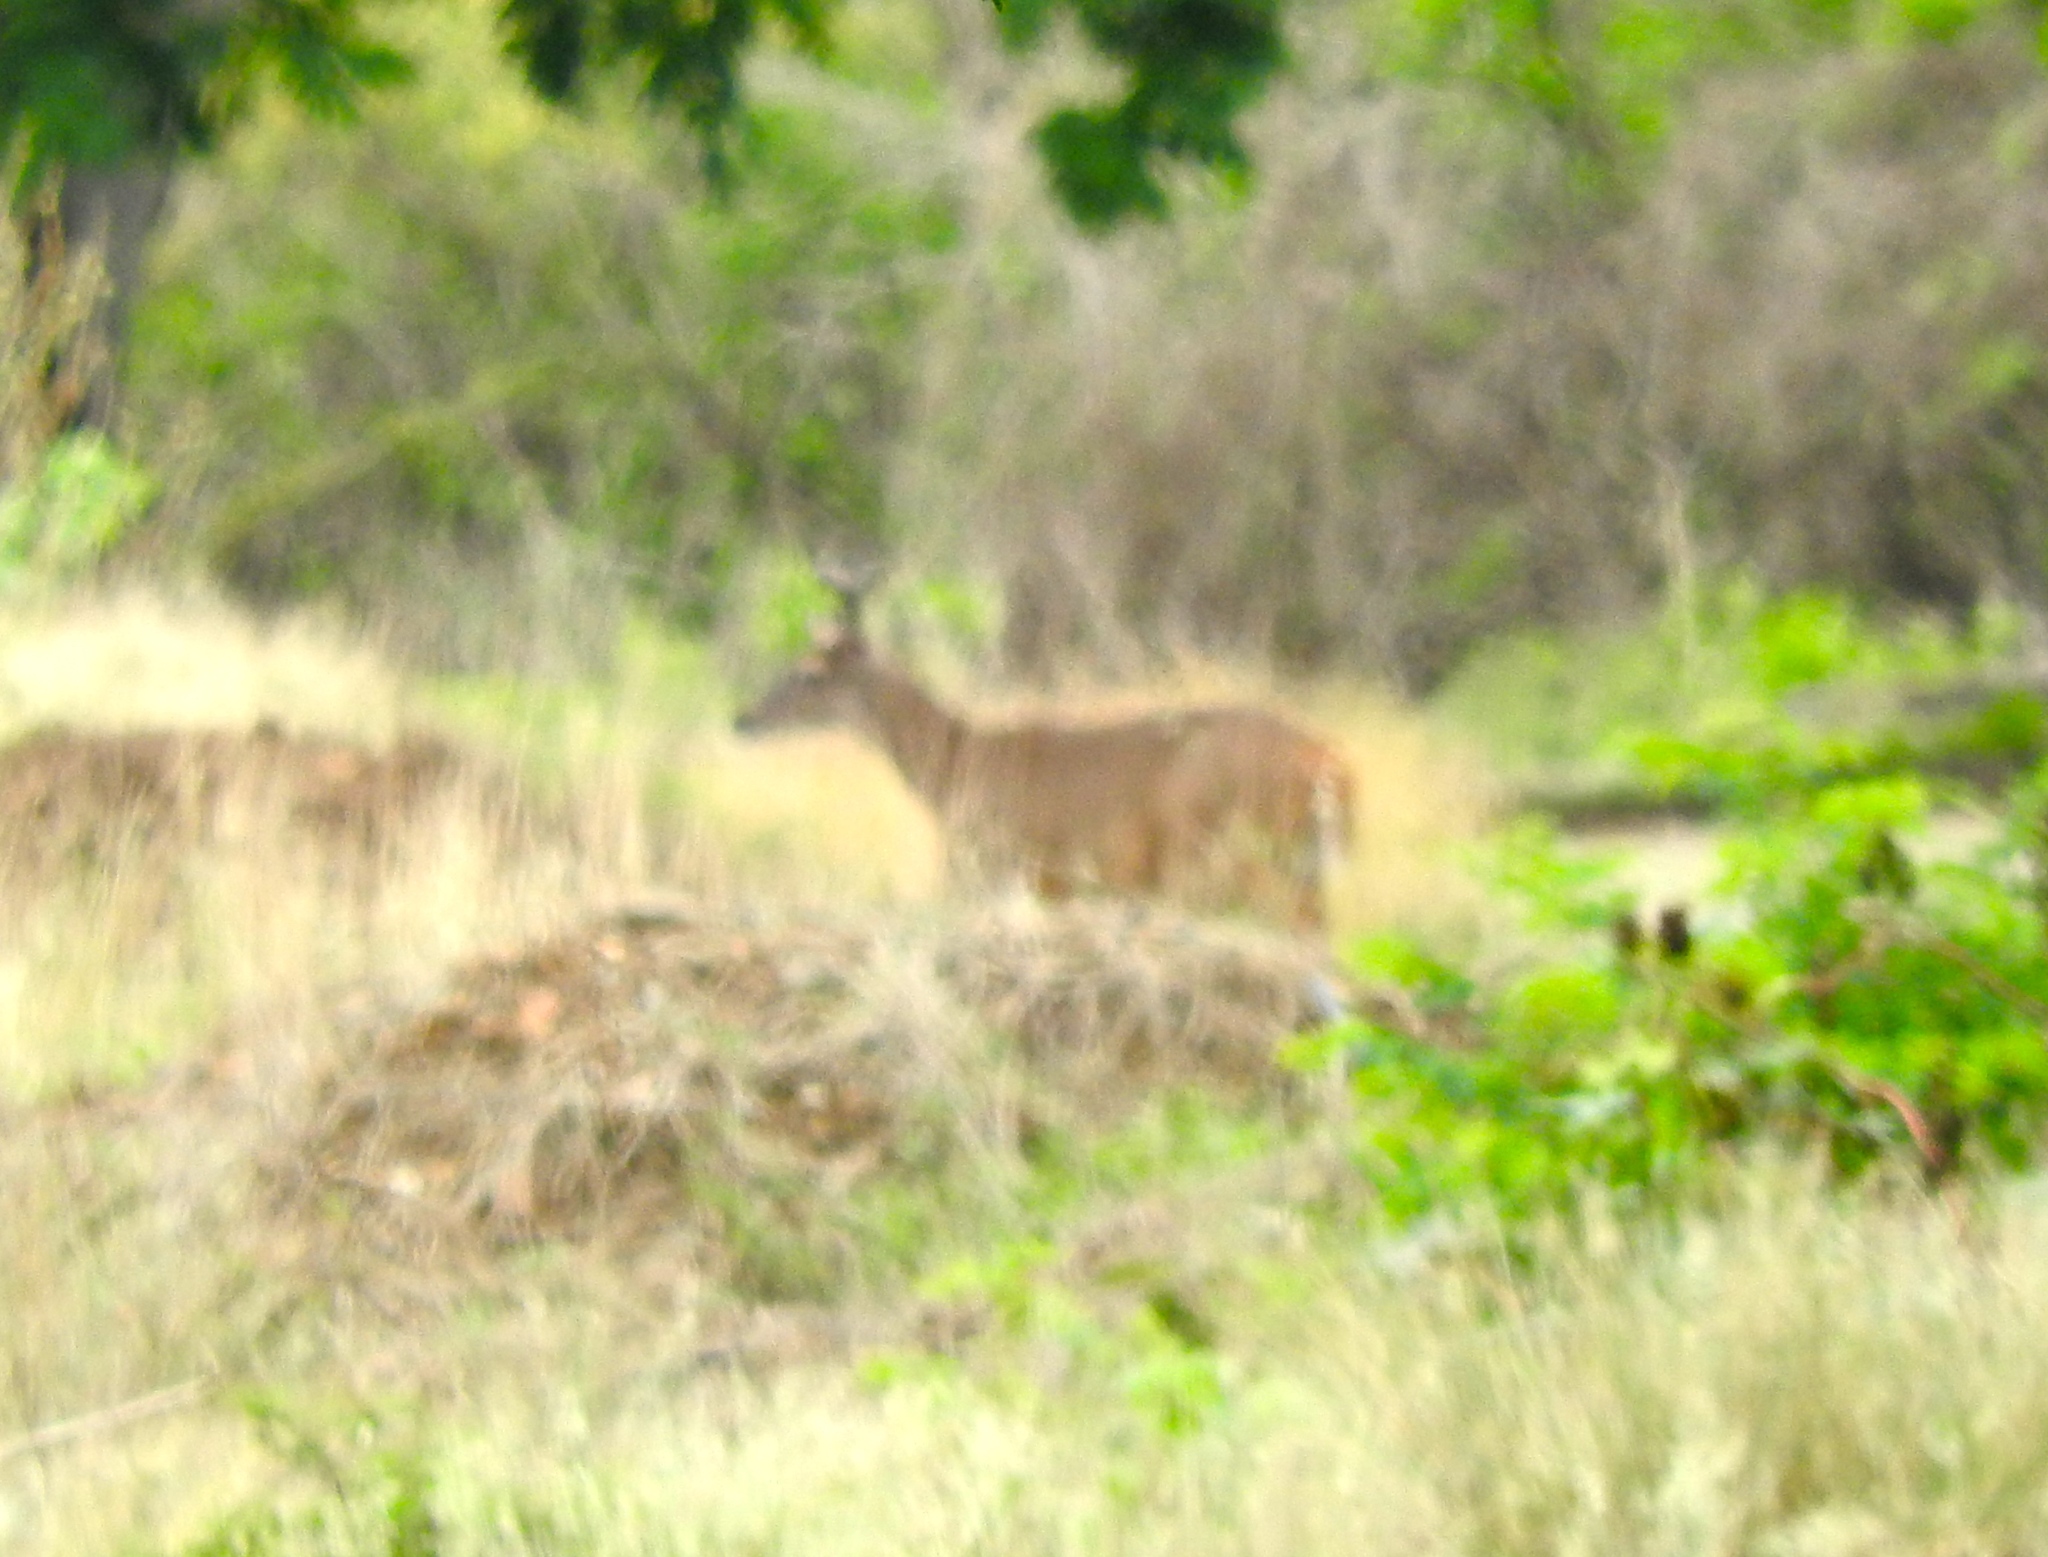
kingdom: Animalia
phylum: Chordata
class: Mammalia
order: Artiodactyla
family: Cervidae
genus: Odocoileus
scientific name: Odocoileus virginianus
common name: White-tailed deer
